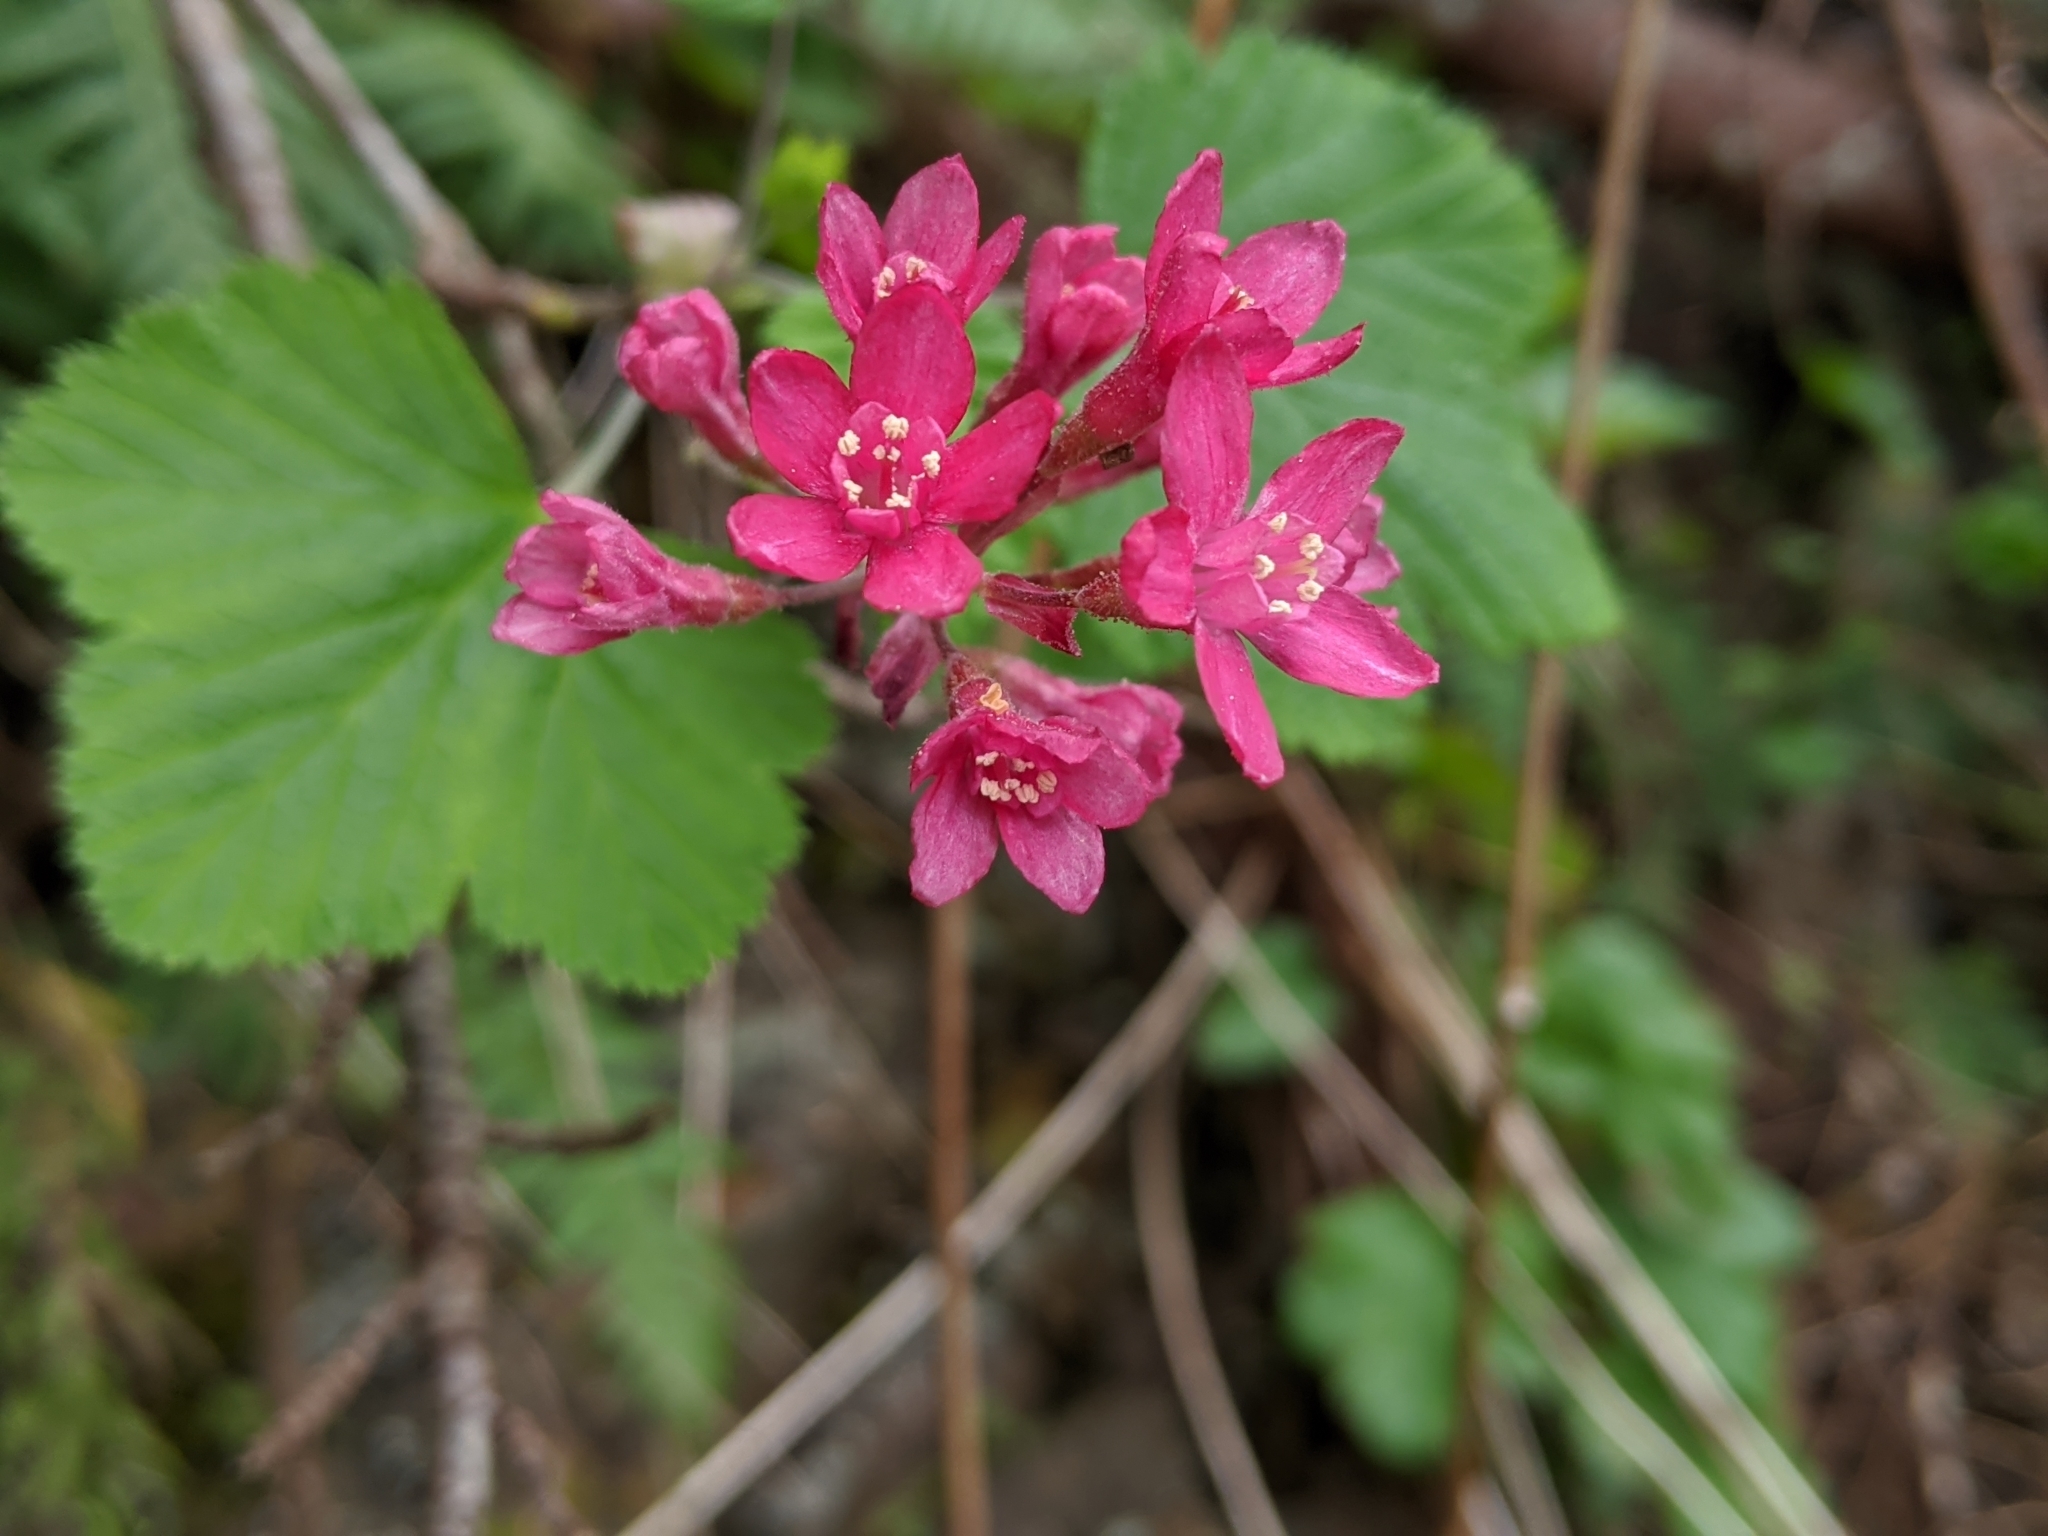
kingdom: Plantae
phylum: Tracheophyta
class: Magnoliopsida
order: Saxifragales
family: Grossulariaceae
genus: Ribes
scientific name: Ribes sanguineum
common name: Flowering currant
